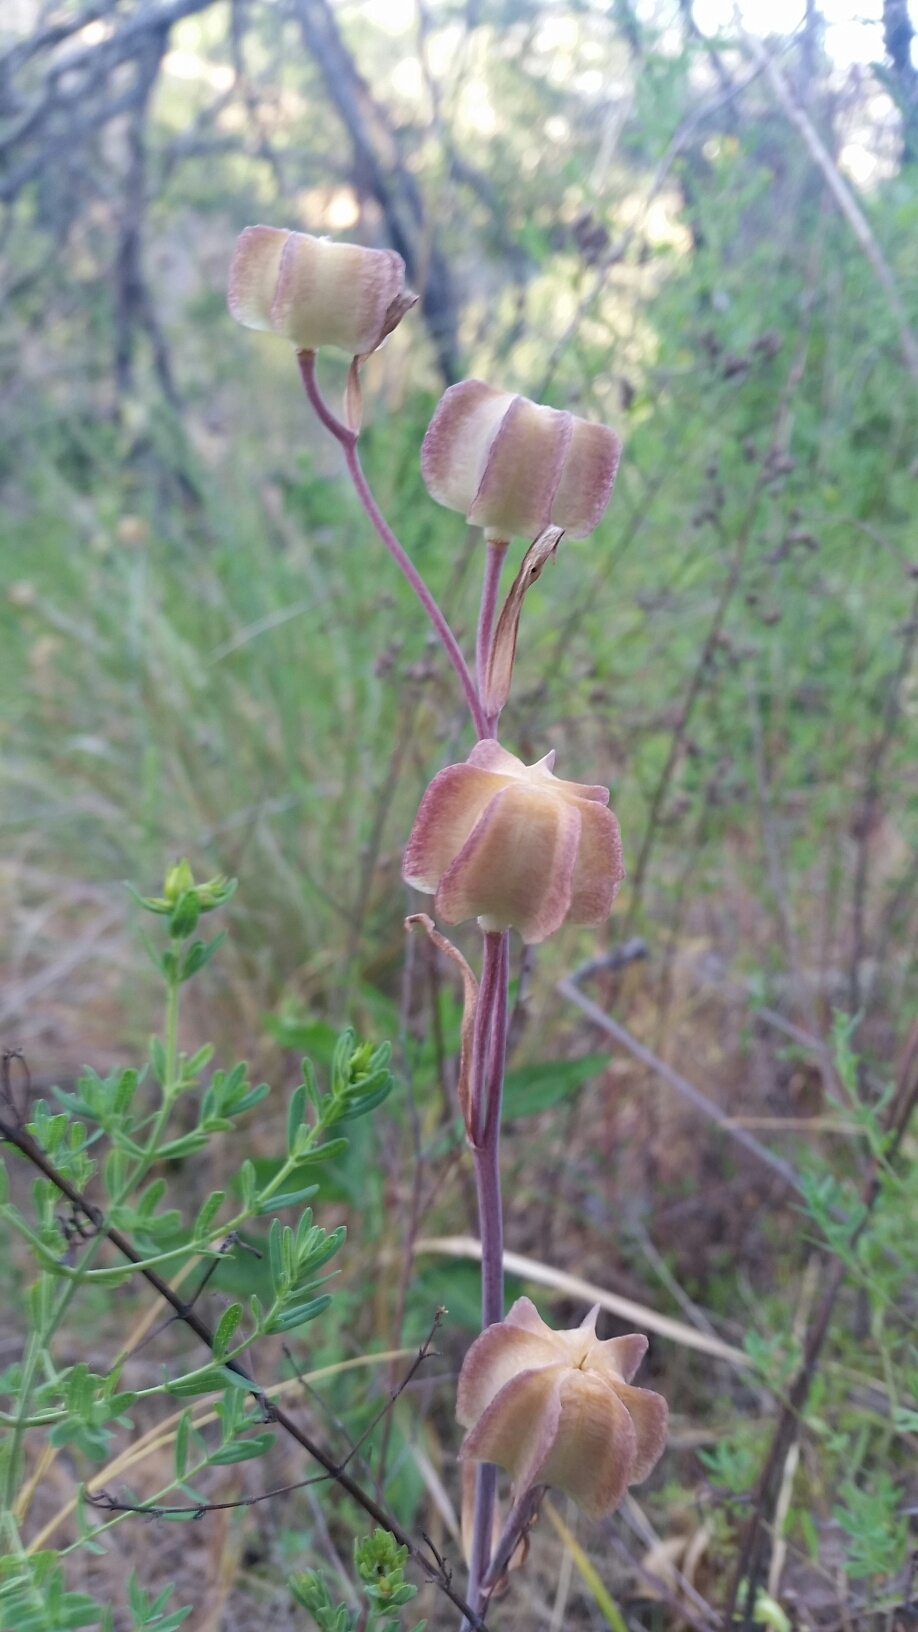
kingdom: Plantae
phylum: Tracheophyta
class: Liliopsida
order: Liliales
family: Liliaceae
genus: Fritillaria
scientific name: Fritillaria affinis
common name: Ojai fritillary
